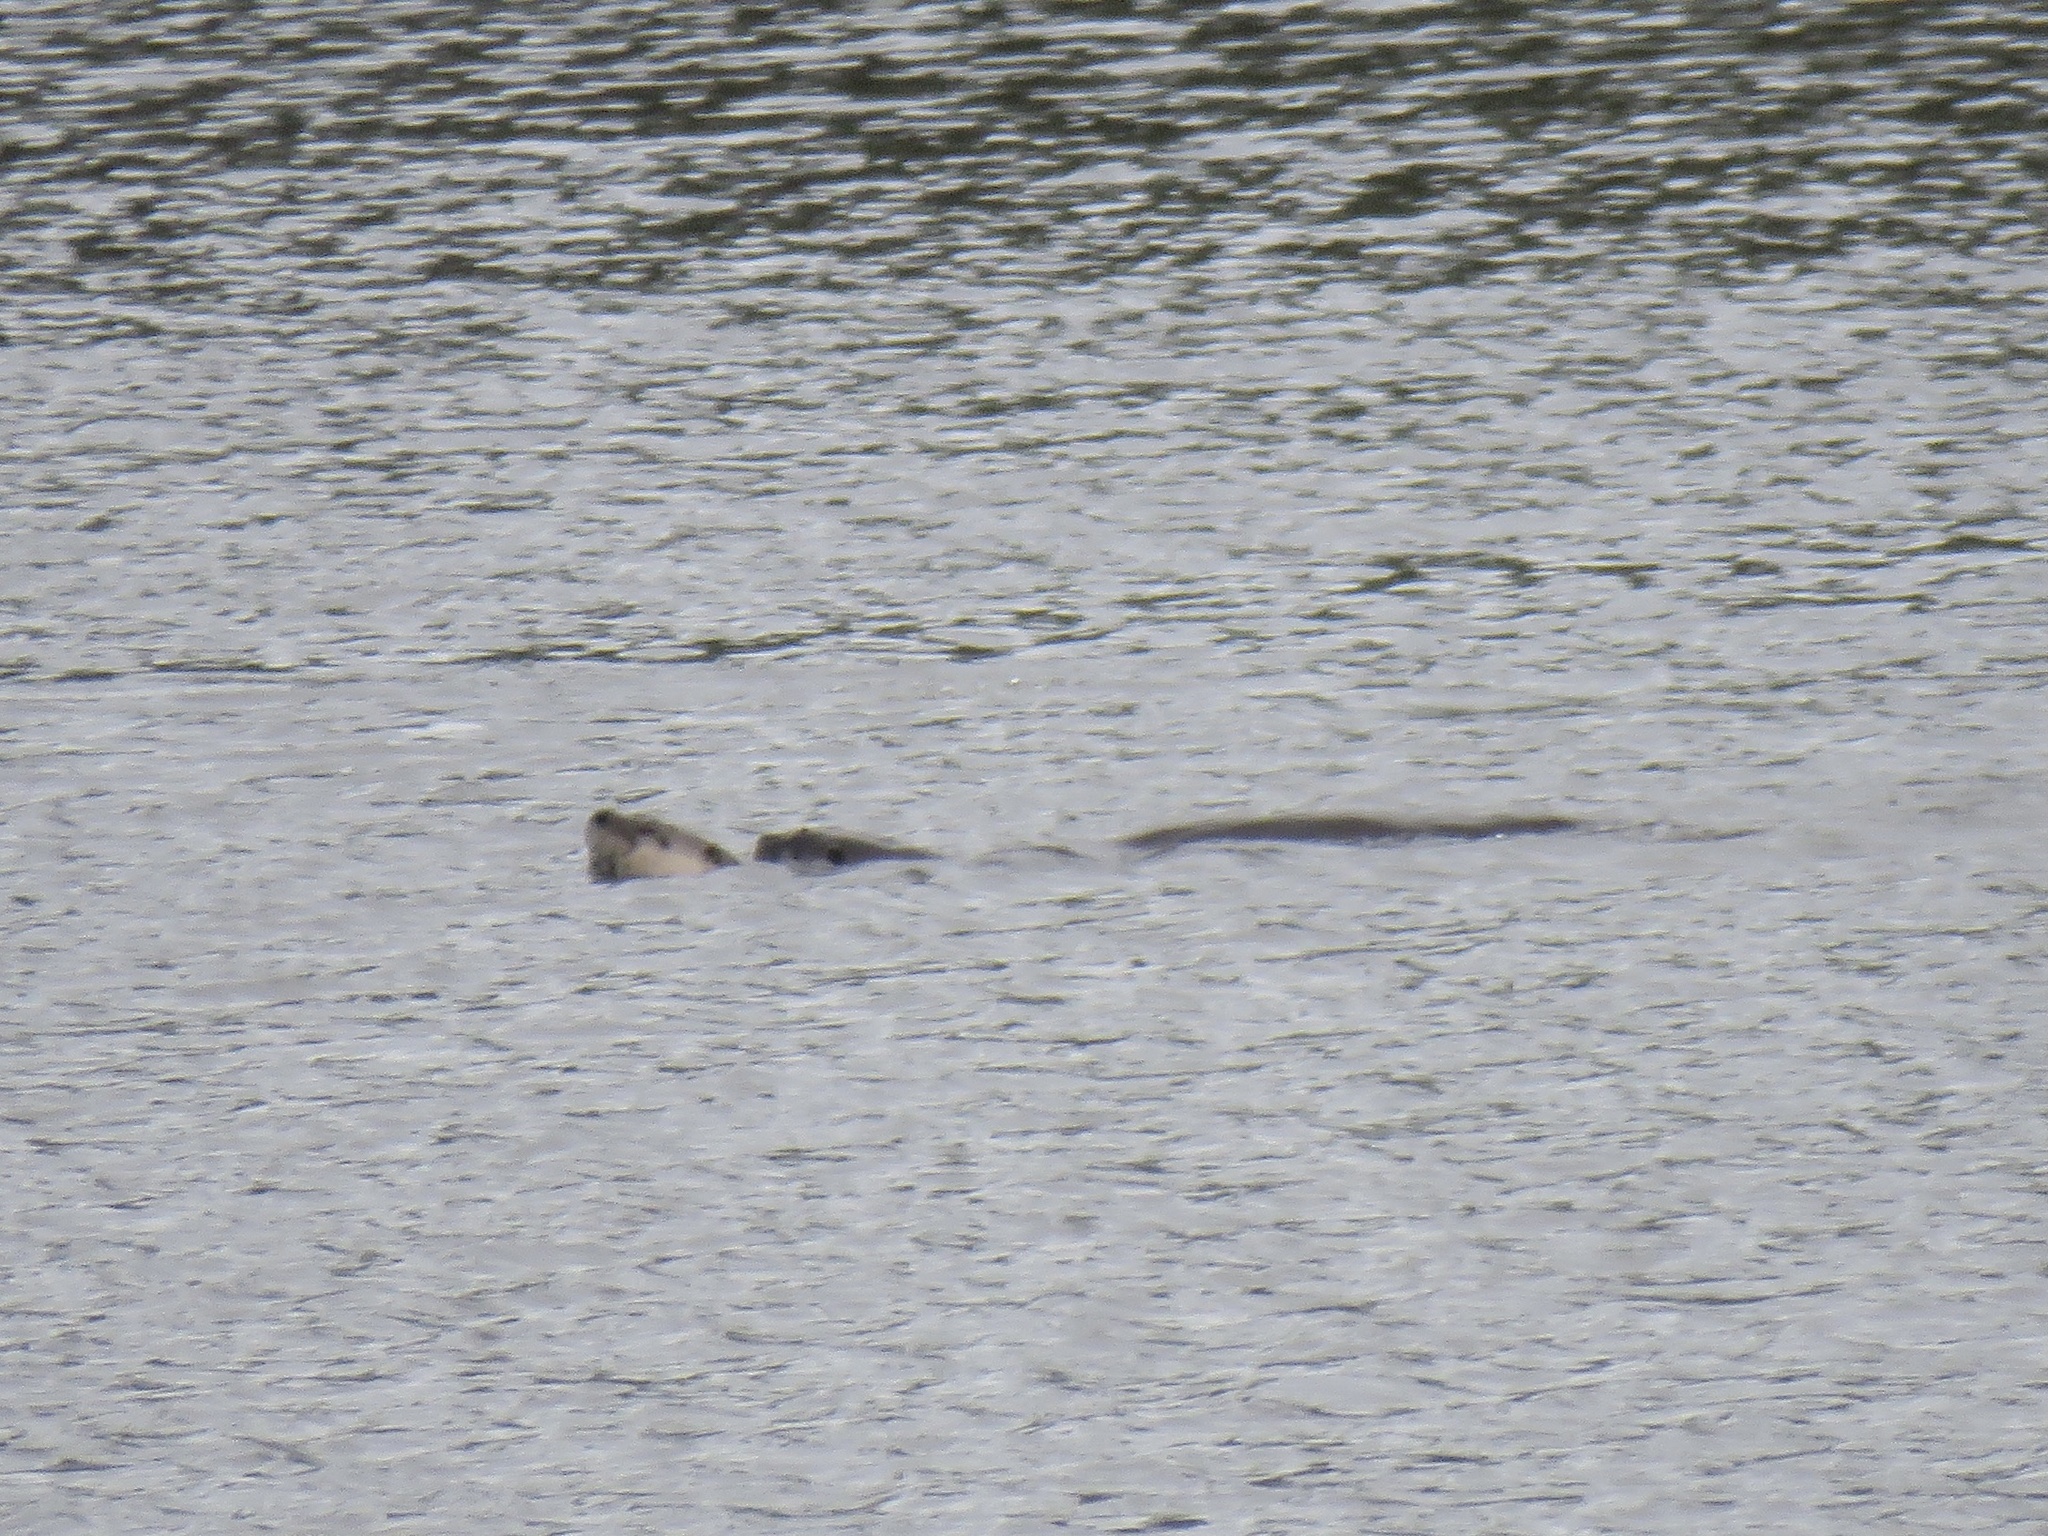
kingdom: Animalia
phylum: Chordata
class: Mammalia
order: Carnivora
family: Mustelidae
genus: Lontra
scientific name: Lontra canadensis
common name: North american river otter
